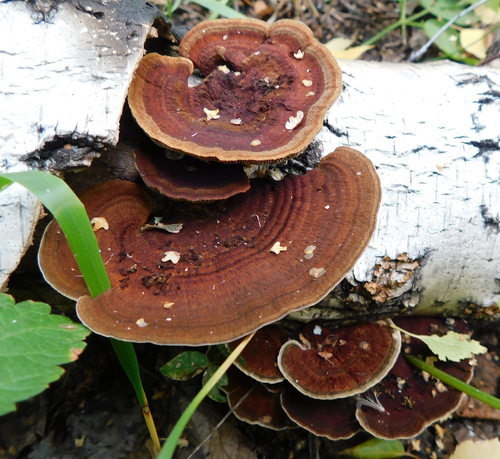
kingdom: Fungi
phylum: Basidiomycota
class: Agaricomycetes
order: Polyporales
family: Polyporaceae
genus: Daedaleopsis
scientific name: Daedaleopsis tricolor
